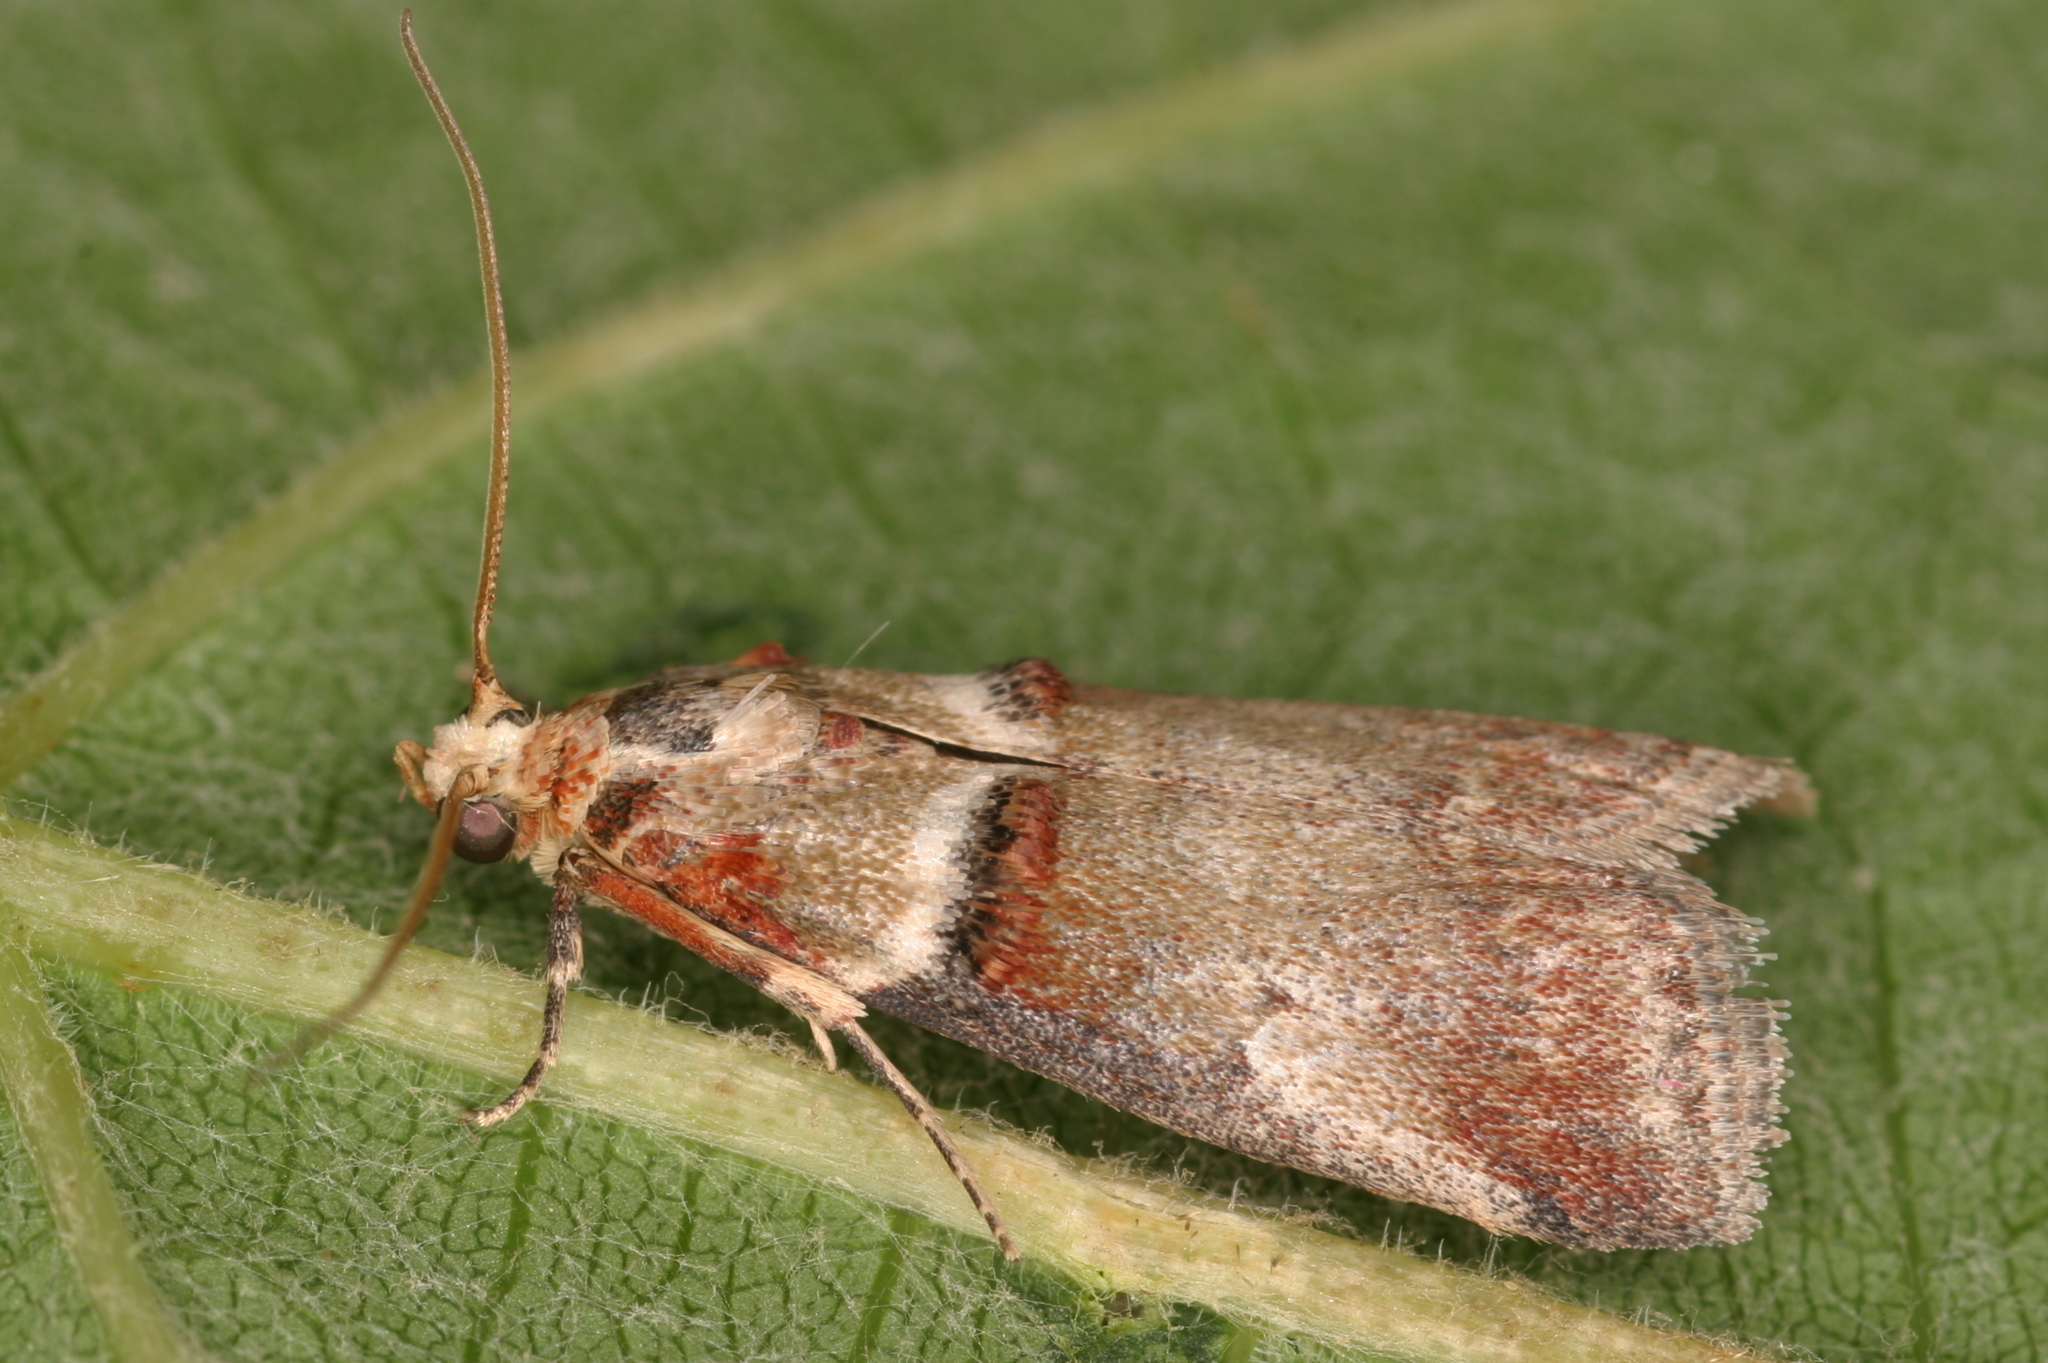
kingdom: Animalia
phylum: Arthropoda
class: Insecta
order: Lepidoptera
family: Pyralidae
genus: Acrobasis
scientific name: Acrobasis tumidana
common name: Scarce oak knot-horn
